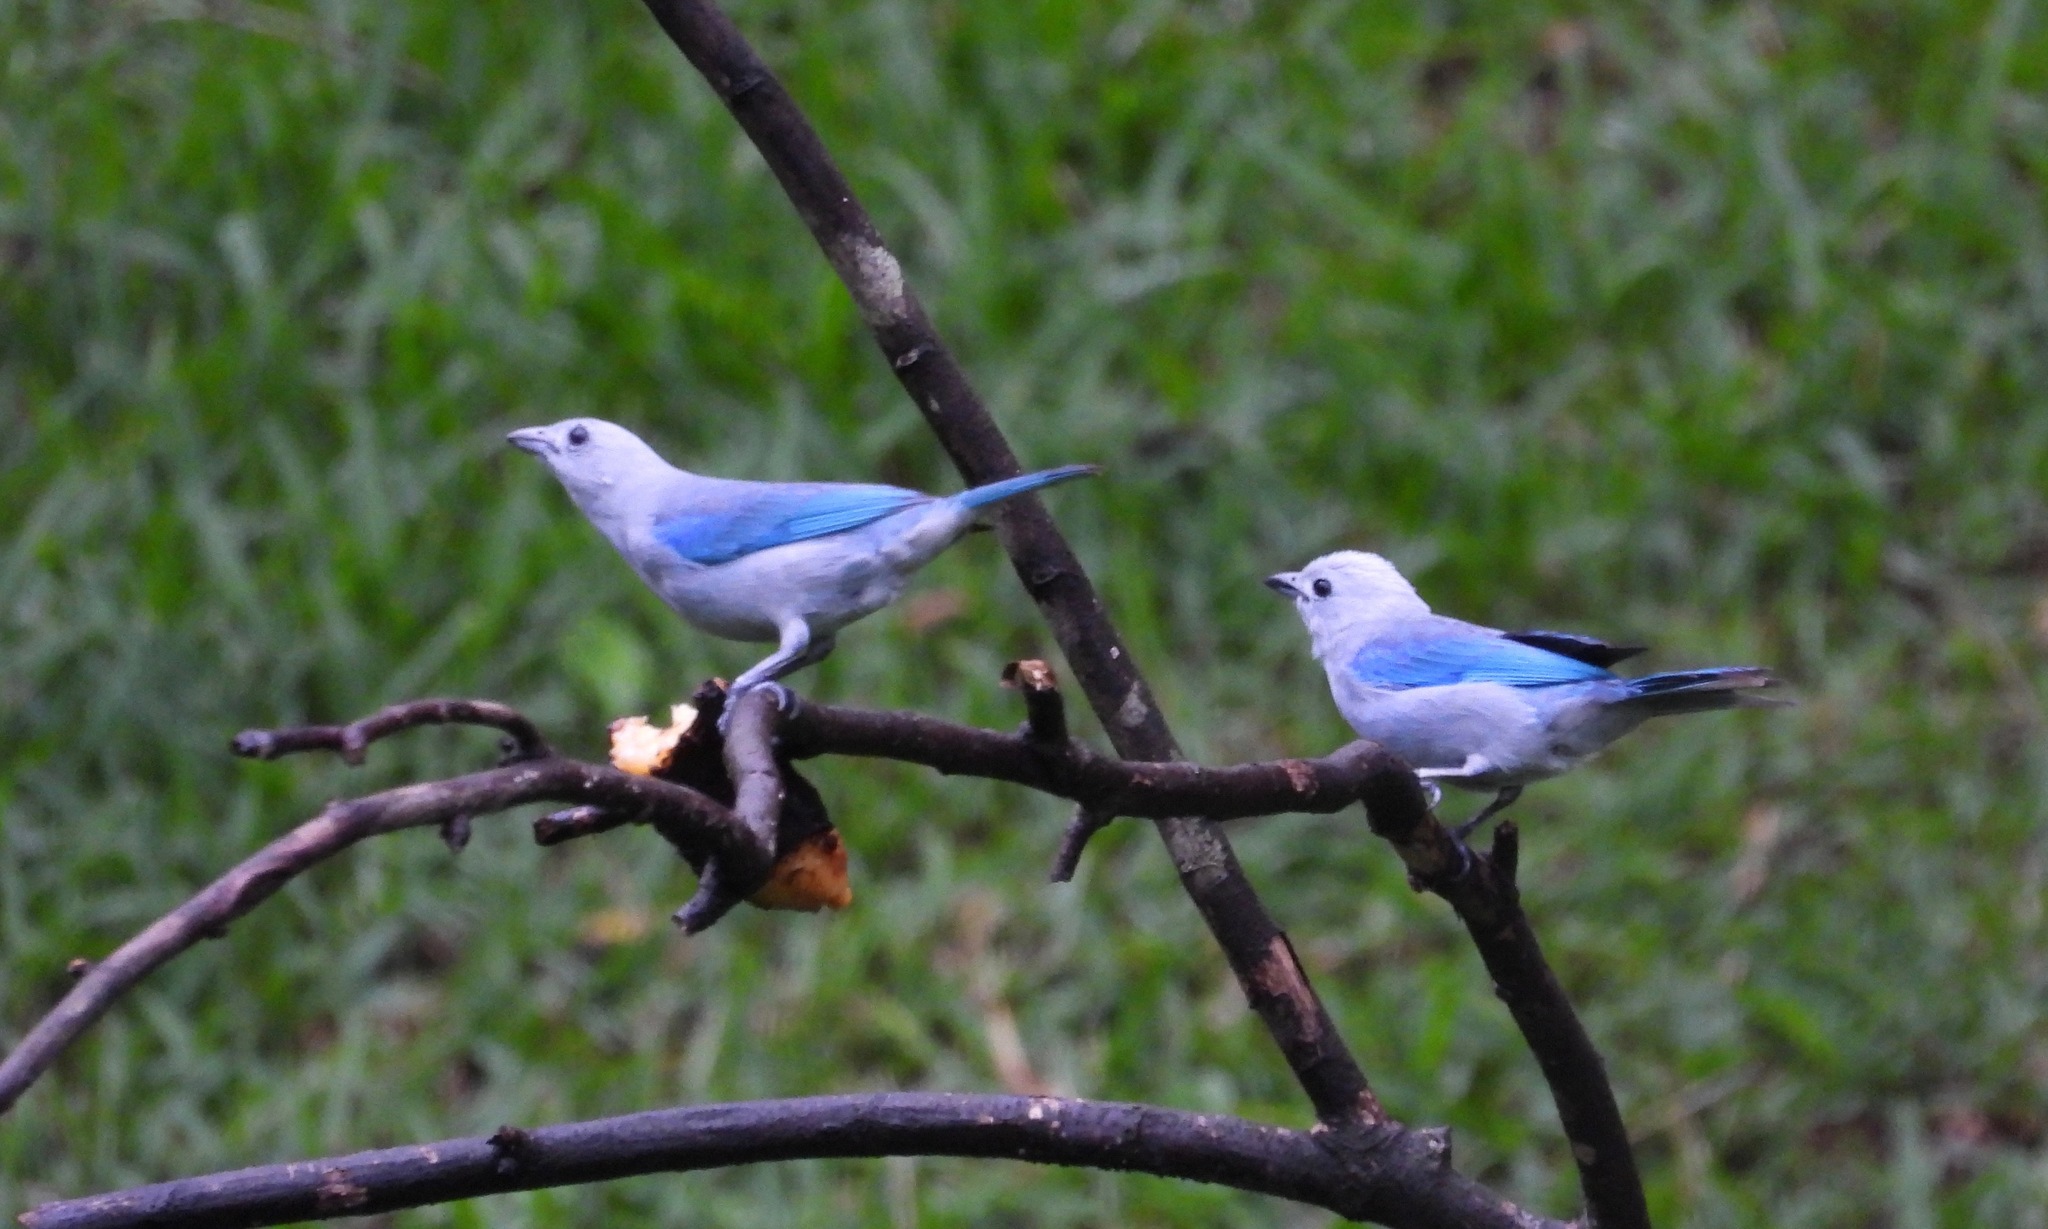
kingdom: Animalia
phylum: Chordata
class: Aves
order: Passeriformes
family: Thraupidae
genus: Thraupis
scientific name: Thraupis episcopus
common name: Blue-grey tanager
